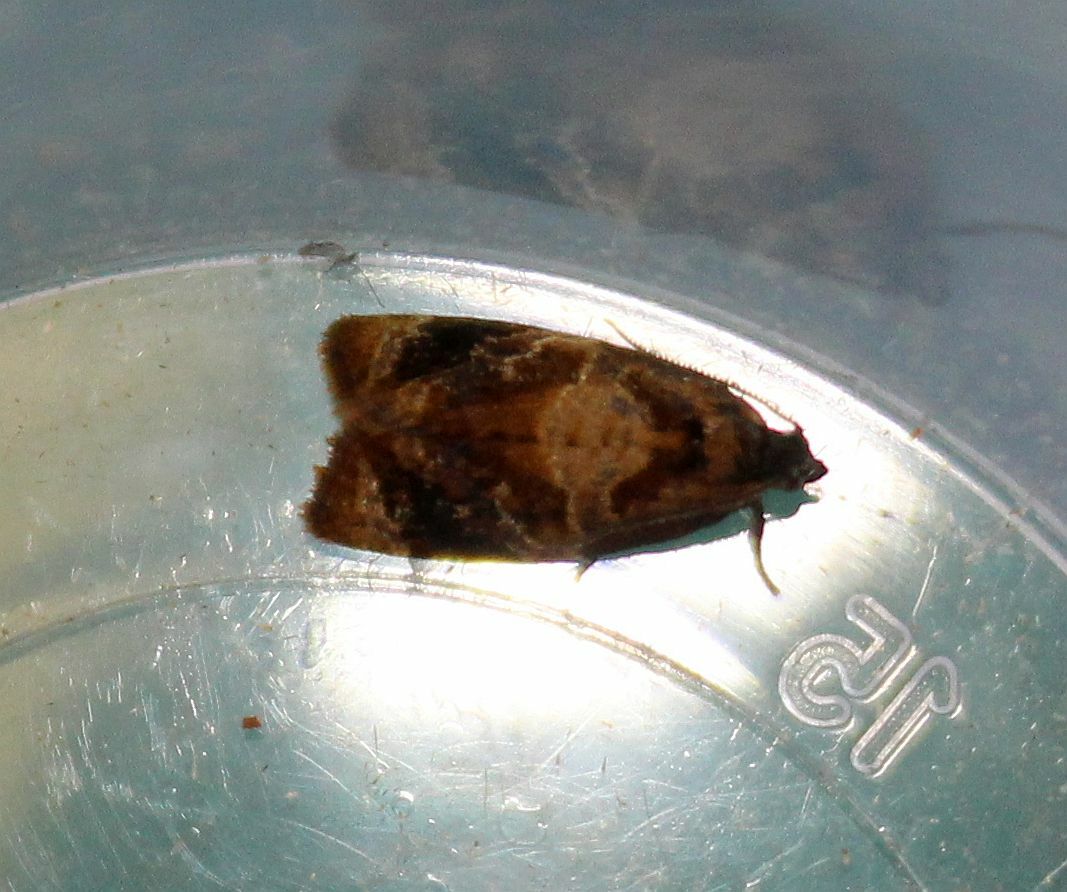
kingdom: Animalia
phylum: Arthropoda
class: Insecta
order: Lepidoptera
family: Tortricidae
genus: Ditula
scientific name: Ditula angustiorana
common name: Red-barred tortrix
